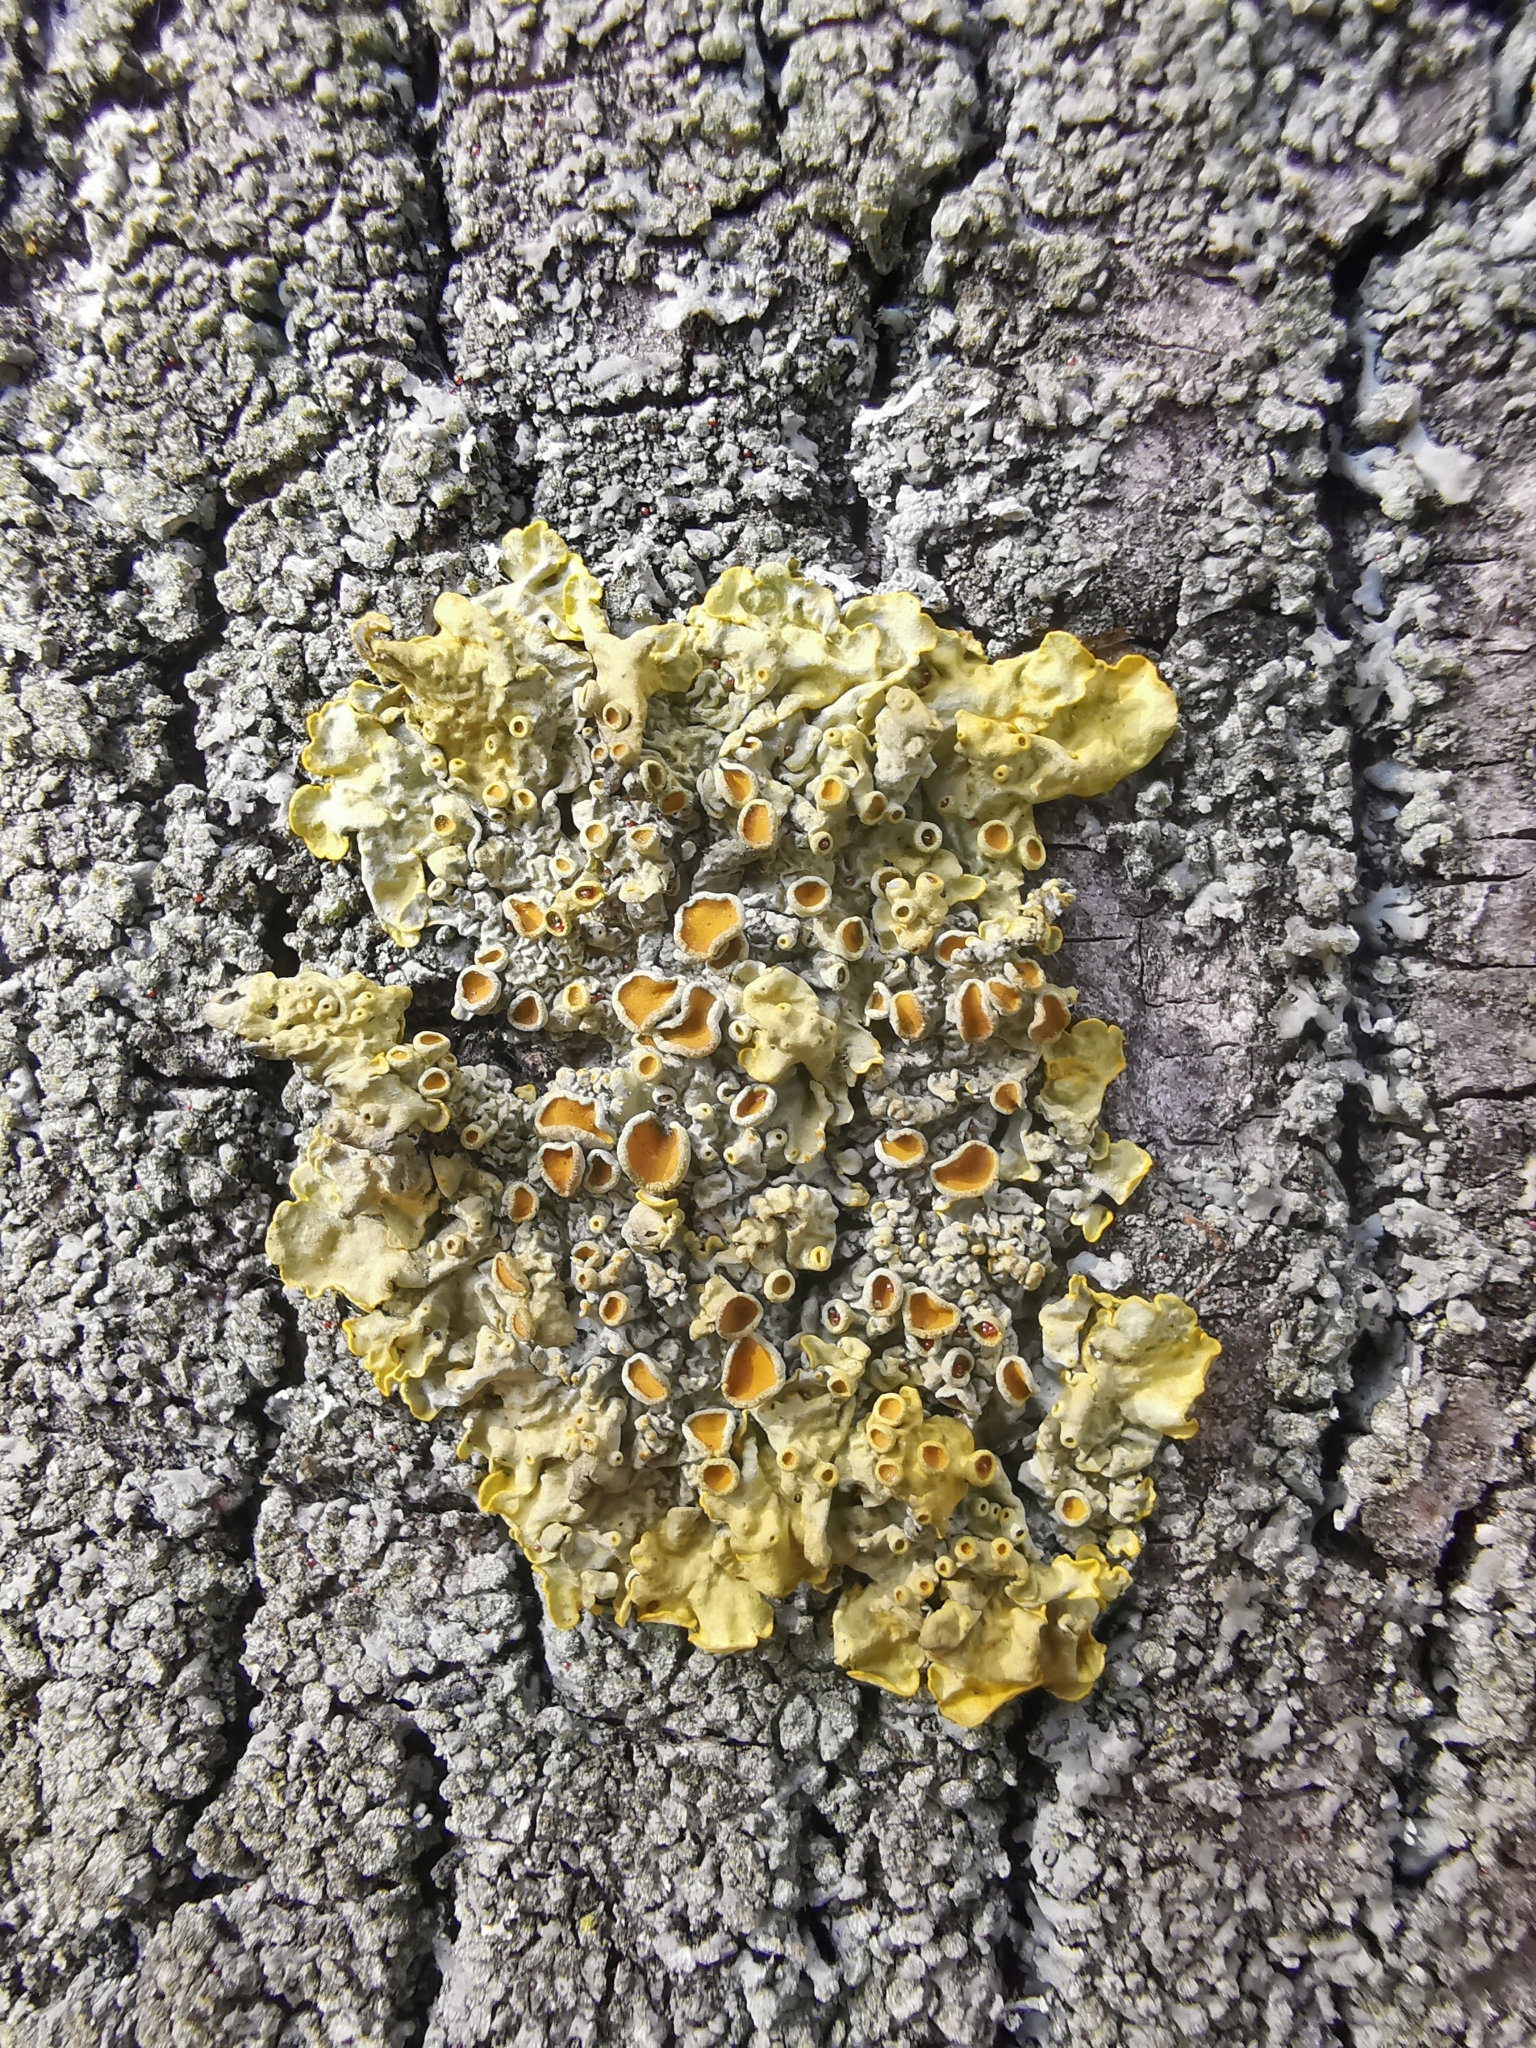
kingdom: Fungi
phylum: Ascomycota
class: Lecanoromycetes
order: Teloschistales
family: Teloschistaceae
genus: Xanthoria
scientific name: Xanthoria parietina
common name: Common orange lichen
